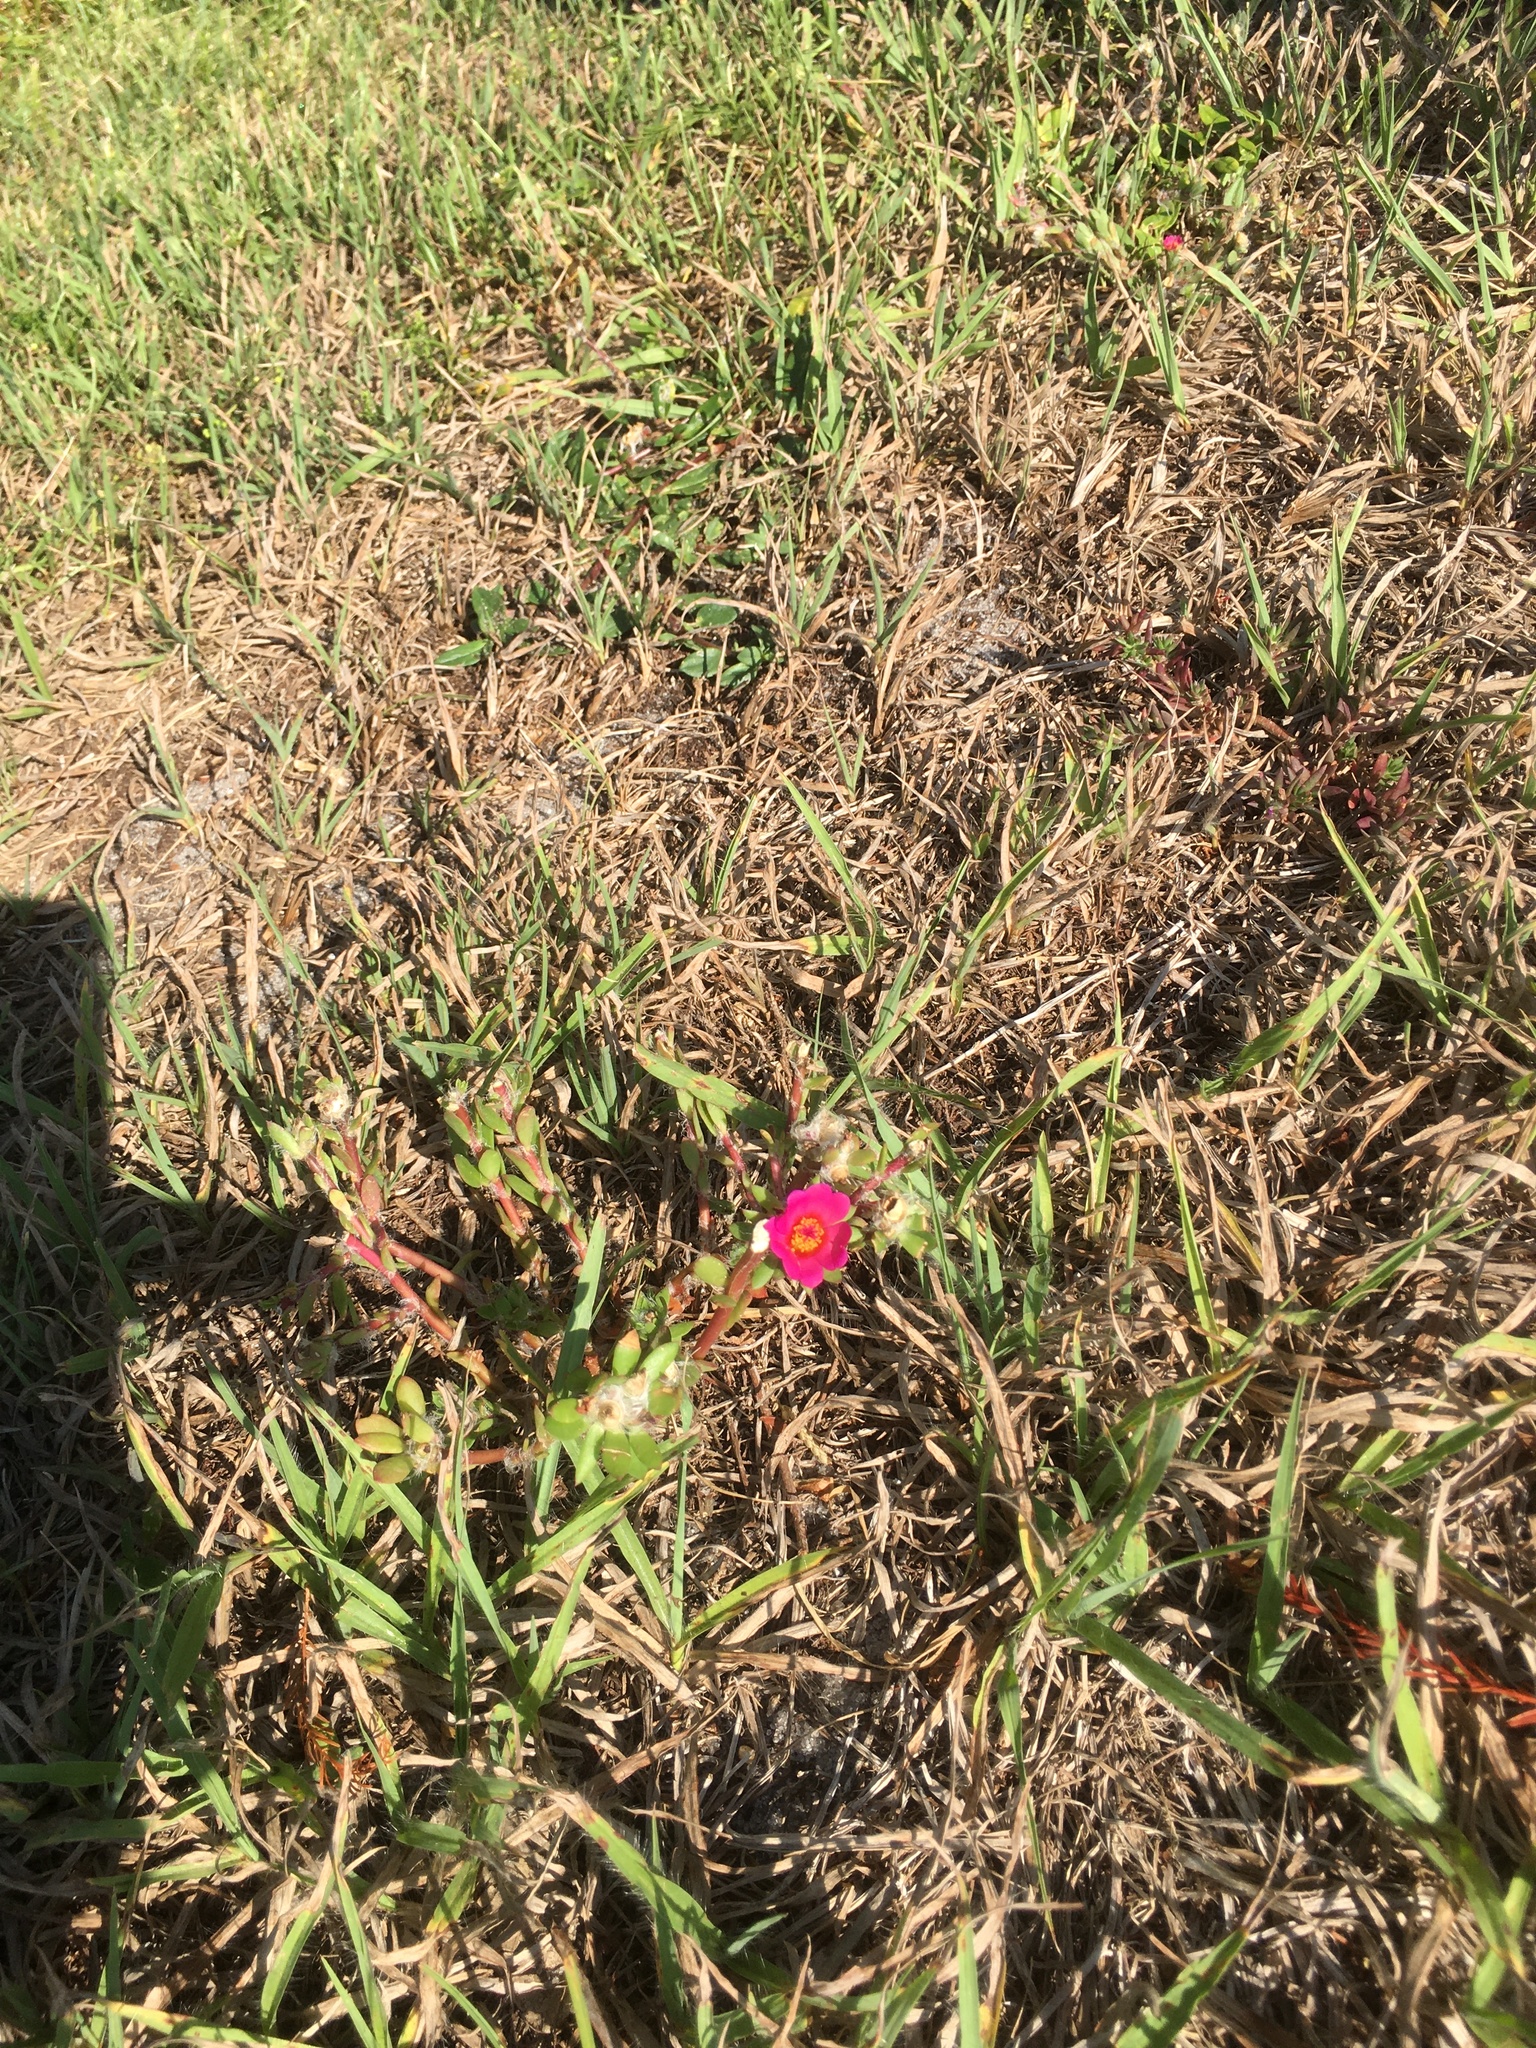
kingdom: Plantae
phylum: Tracheophyta
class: Magnoliopsida
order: Caryophyllales
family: Portulacaceae
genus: Portulaca
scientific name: Portulaca amilis
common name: Paraguayan purslane
